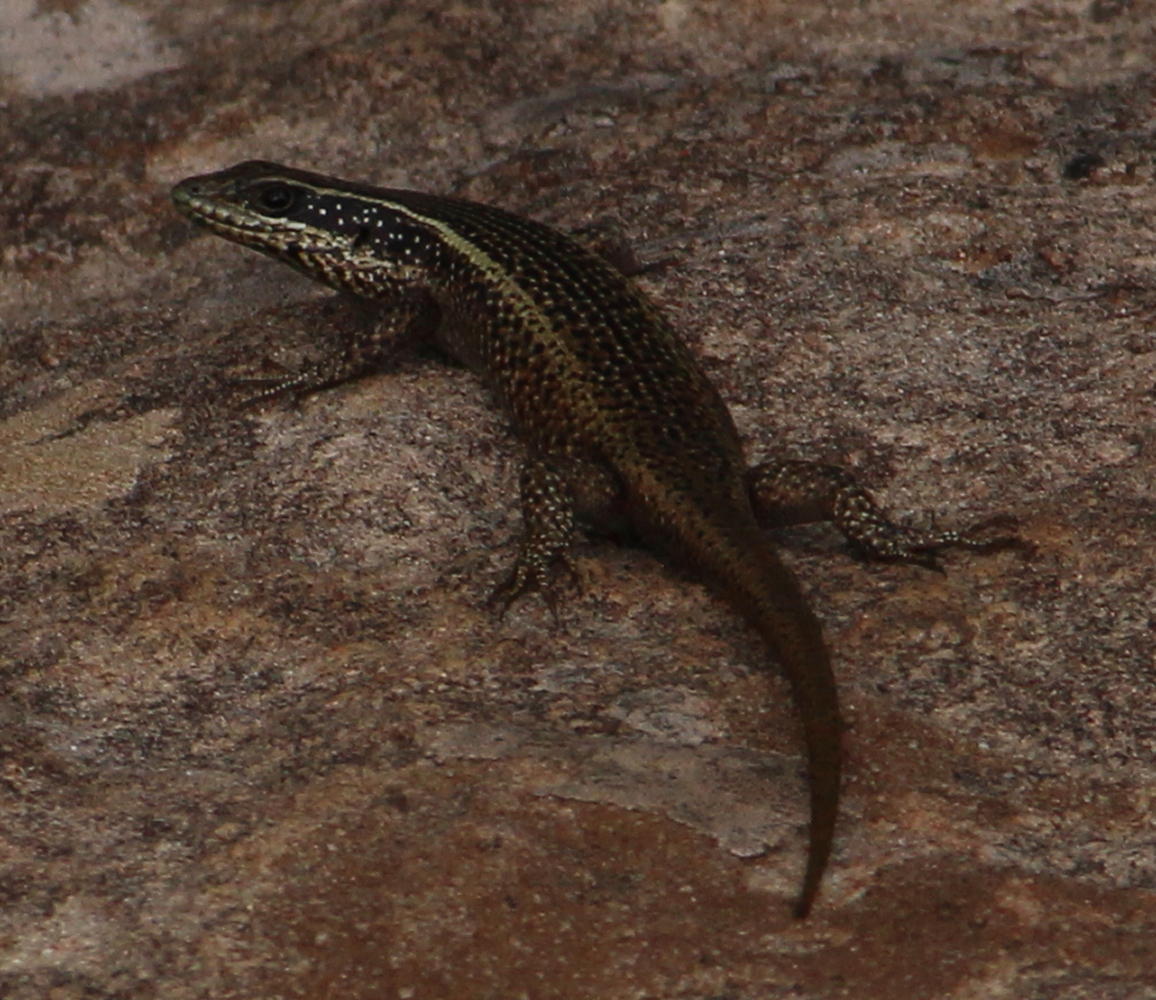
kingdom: Animalia
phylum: Chordata
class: Squamata
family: Scincidae
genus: Trachylepis
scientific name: Trachylepis punctatissima
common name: Montane speckled skink
